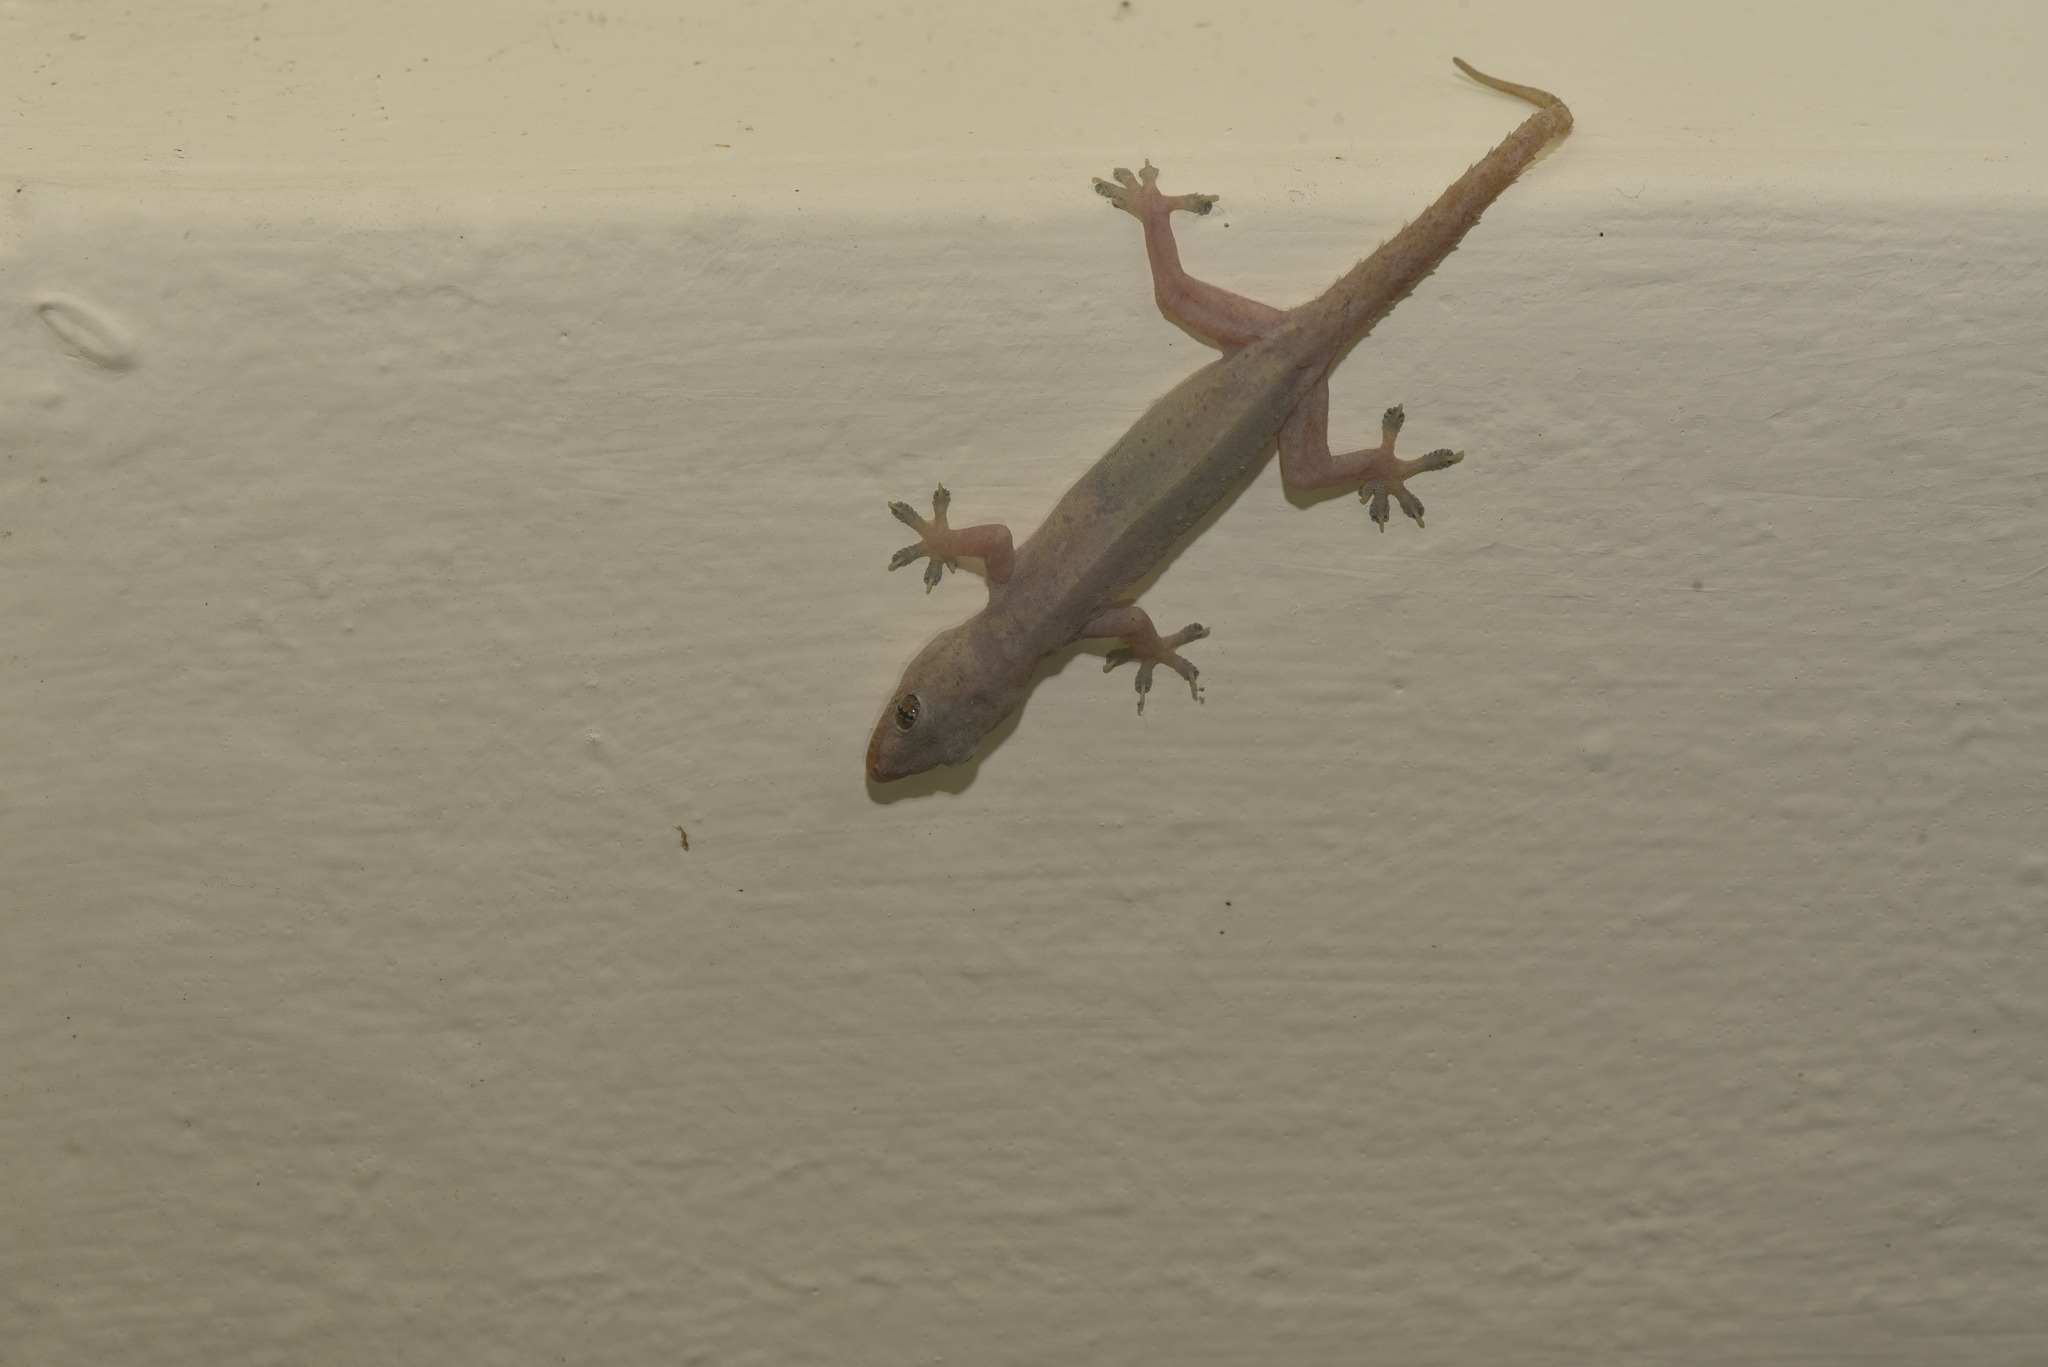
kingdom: Animalia
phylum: Chordata
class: Squamata
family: Gekkonidae
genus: Hemidactylus
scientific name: Hemidactylus frenatus
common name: Common house gecko
